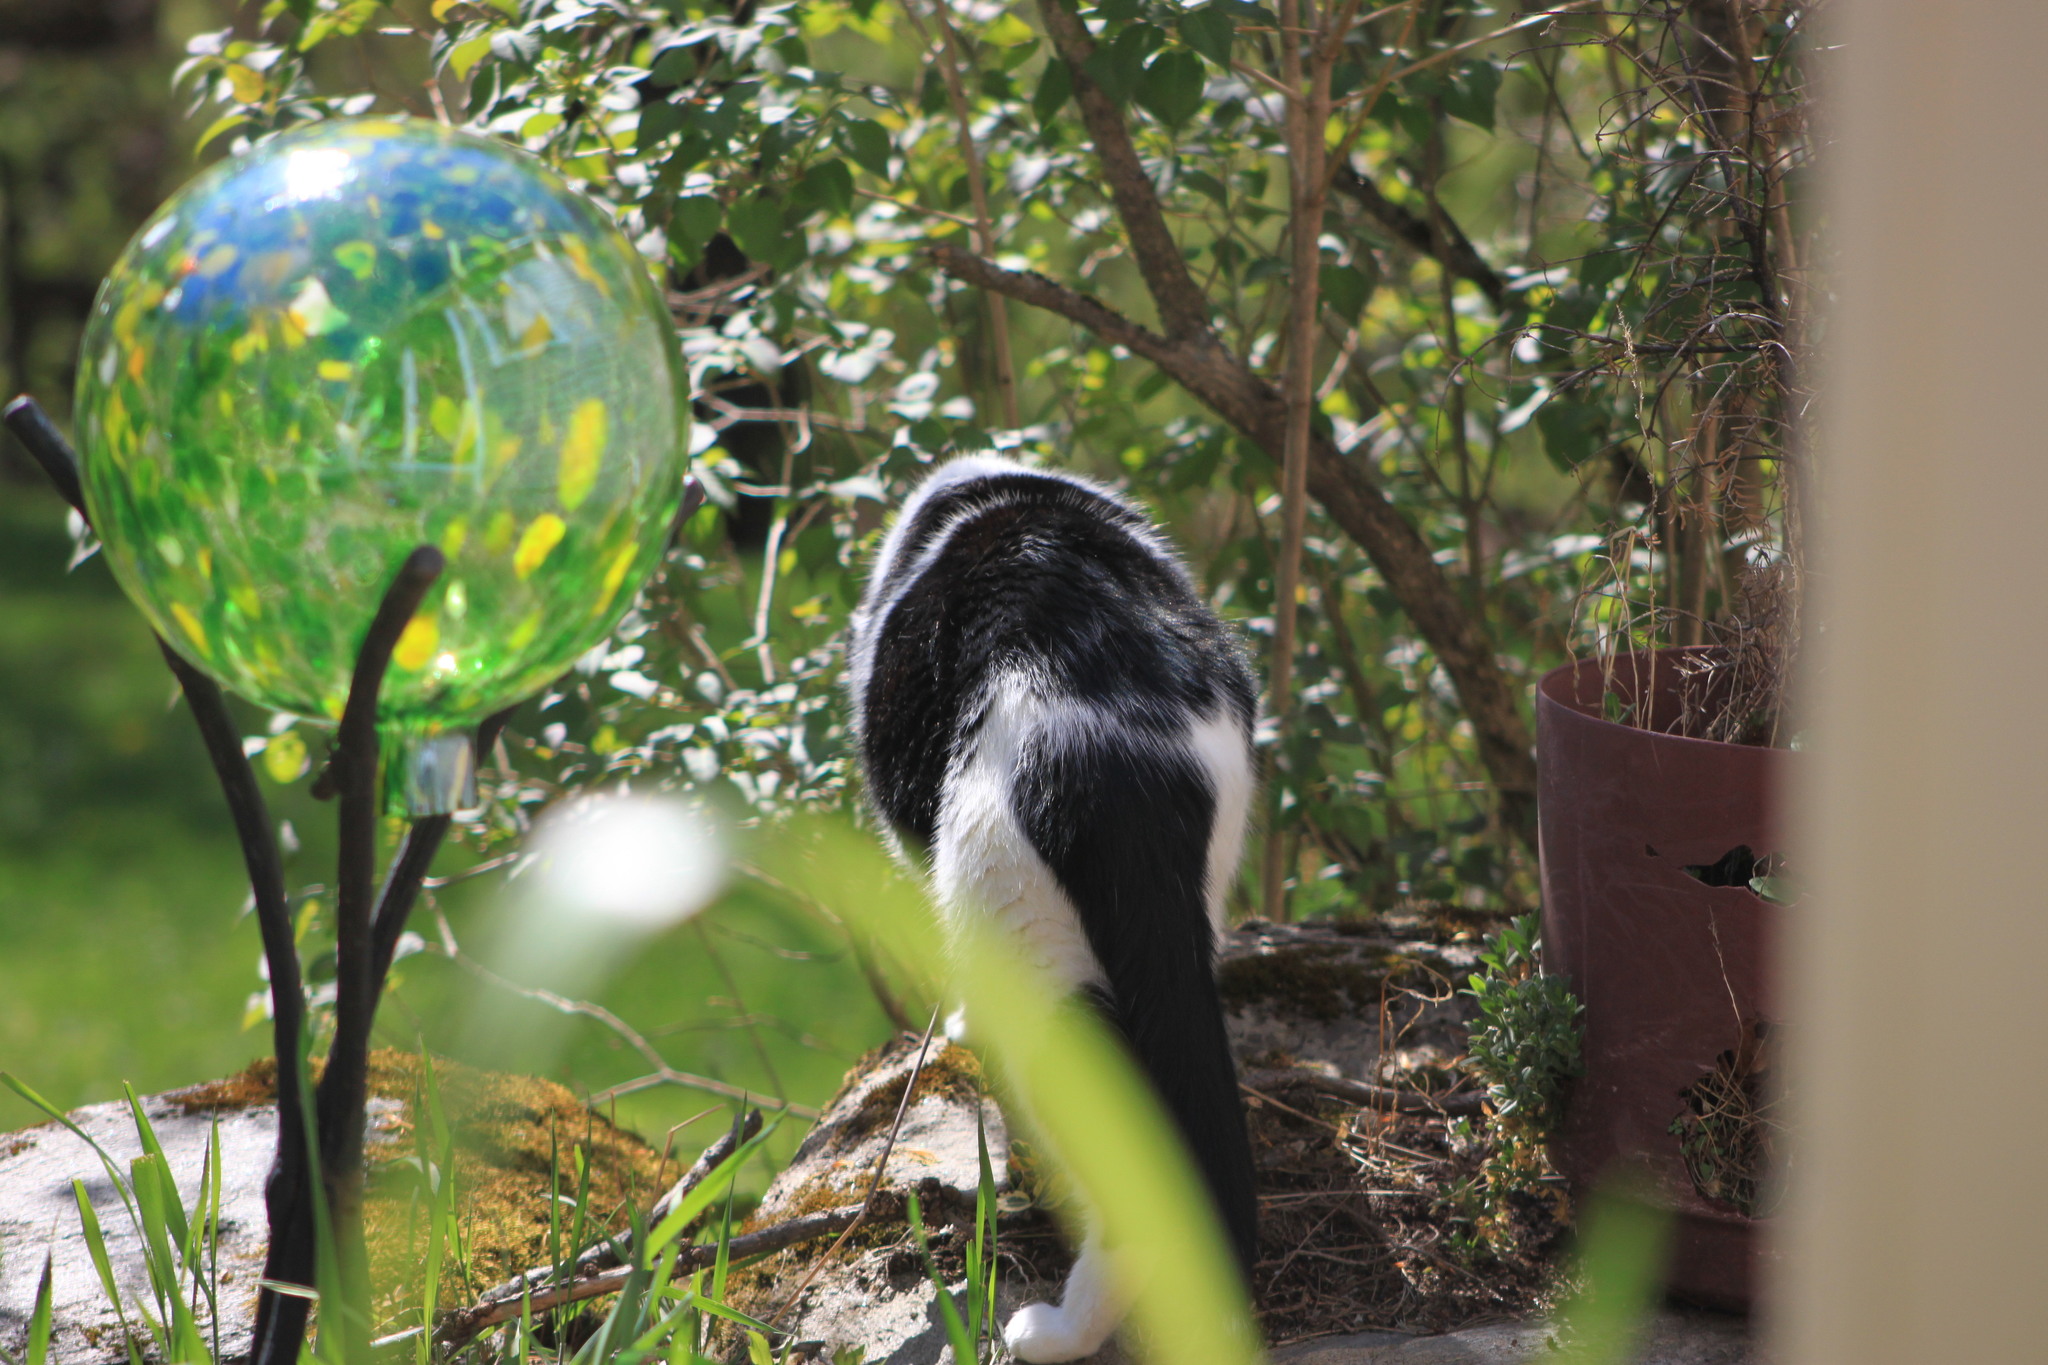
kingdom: Animalia
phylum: Chordata
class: Mammalia
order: Carnivora
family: Felidae
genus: Felis
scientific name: Felis catus
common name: Domestic cat
